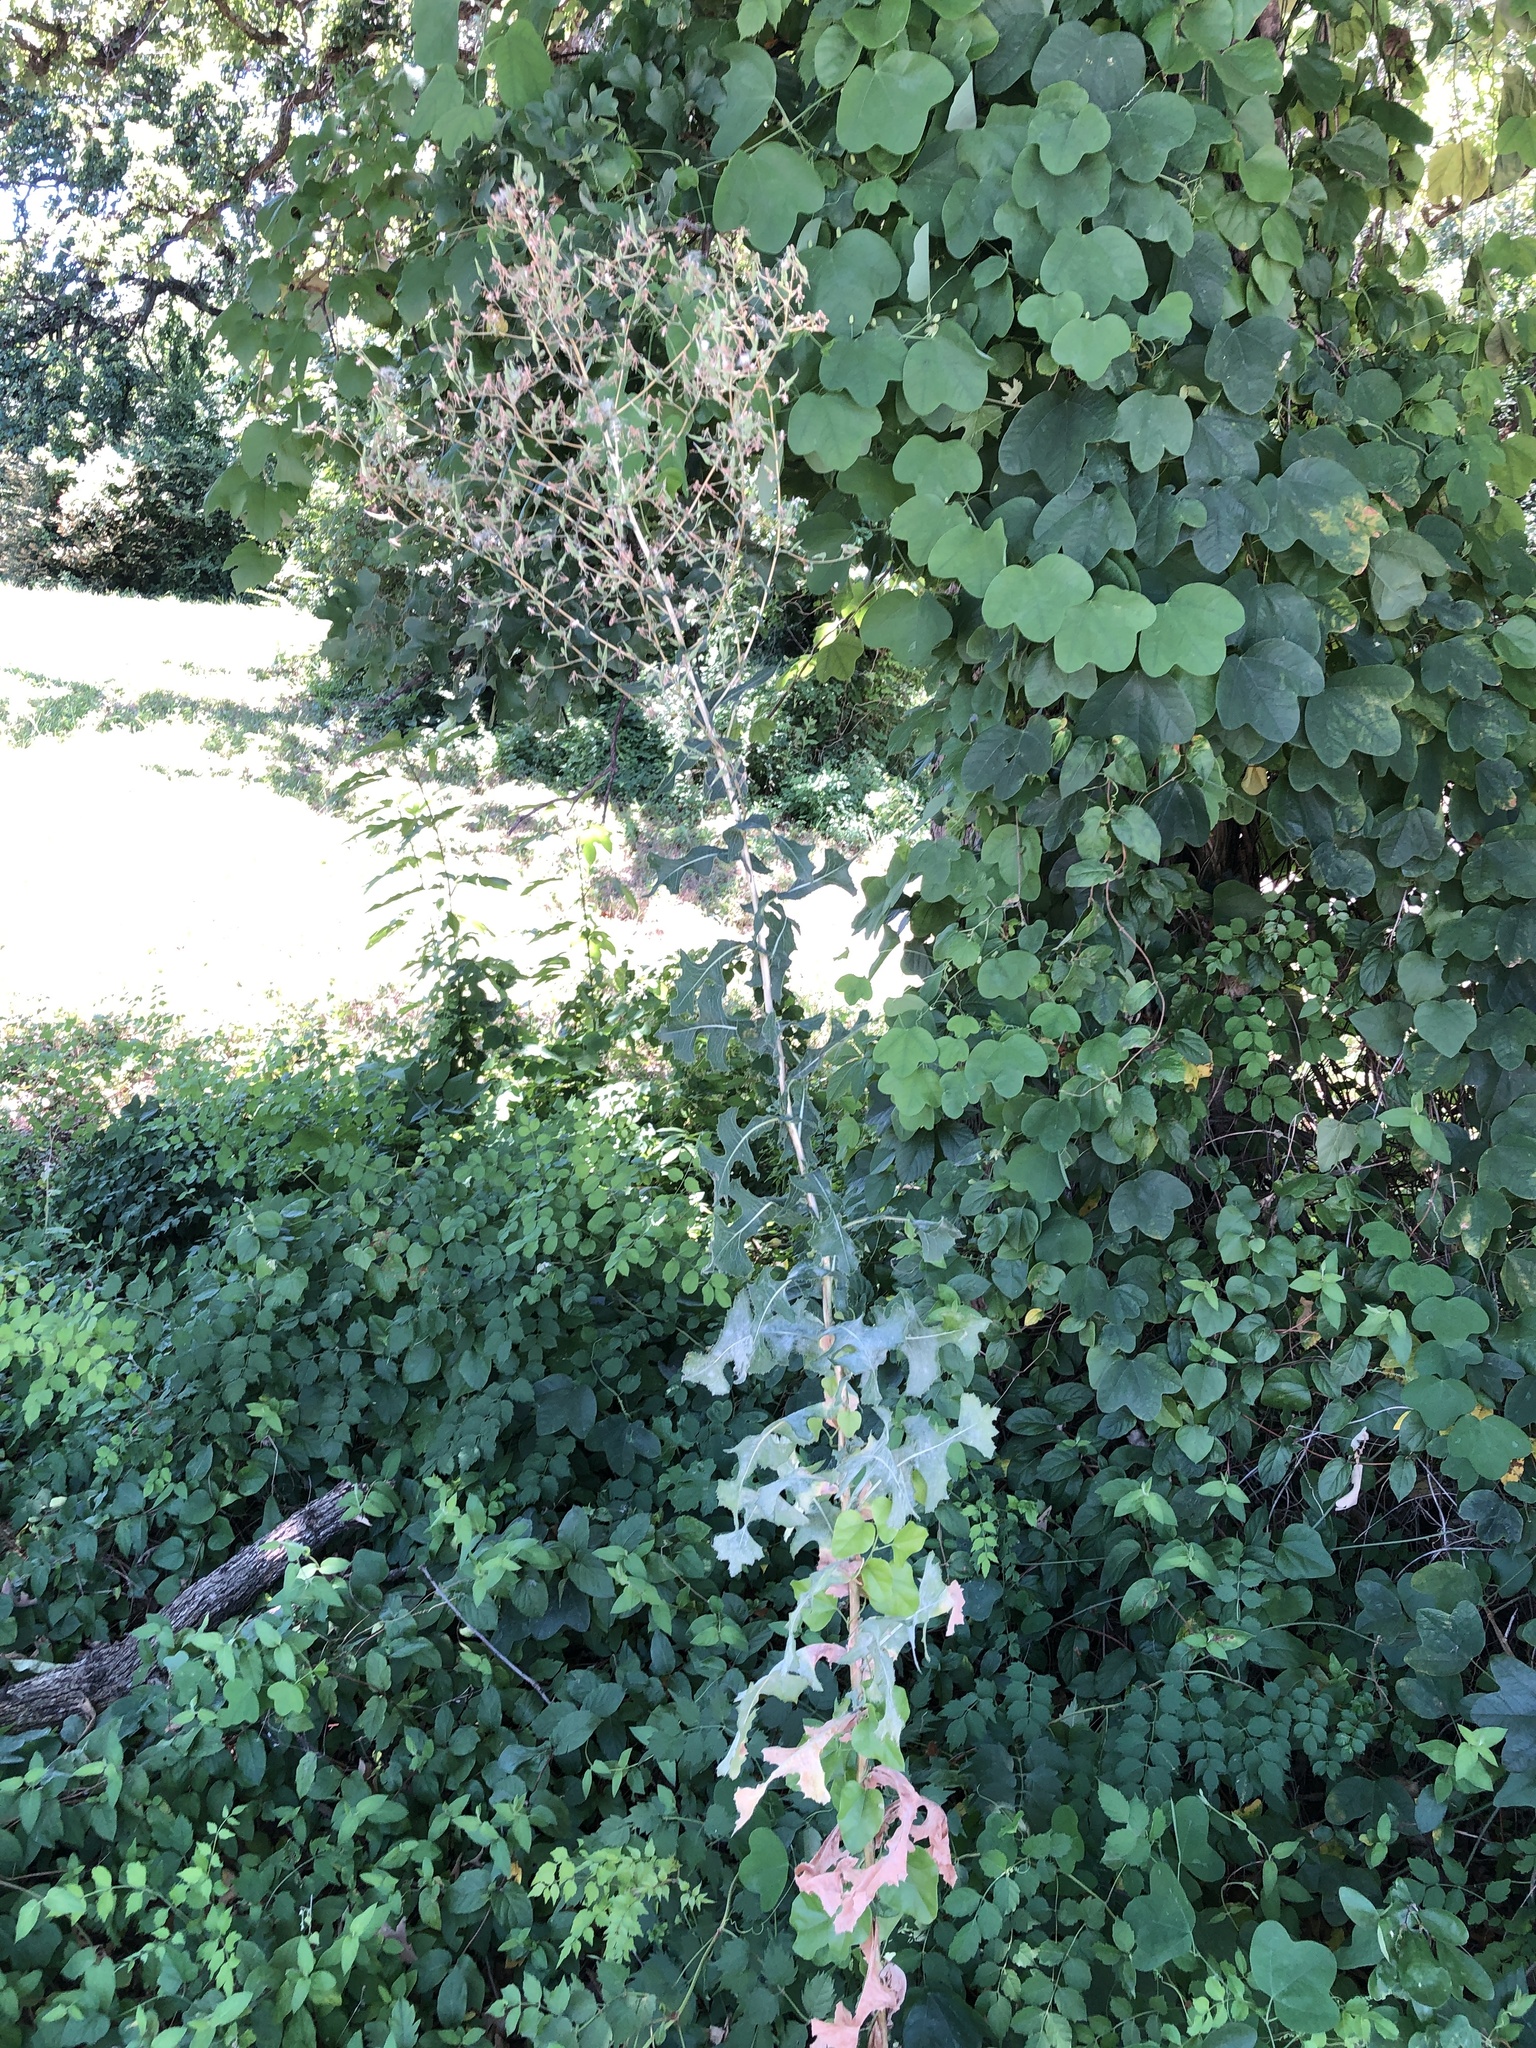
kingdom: Plantae
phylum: Tracheophyta
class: Magnoliopsida
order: Asterales
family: Asteraceae
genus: Lactuca
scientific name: Lactuca serriola
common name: Prickly lettuce
